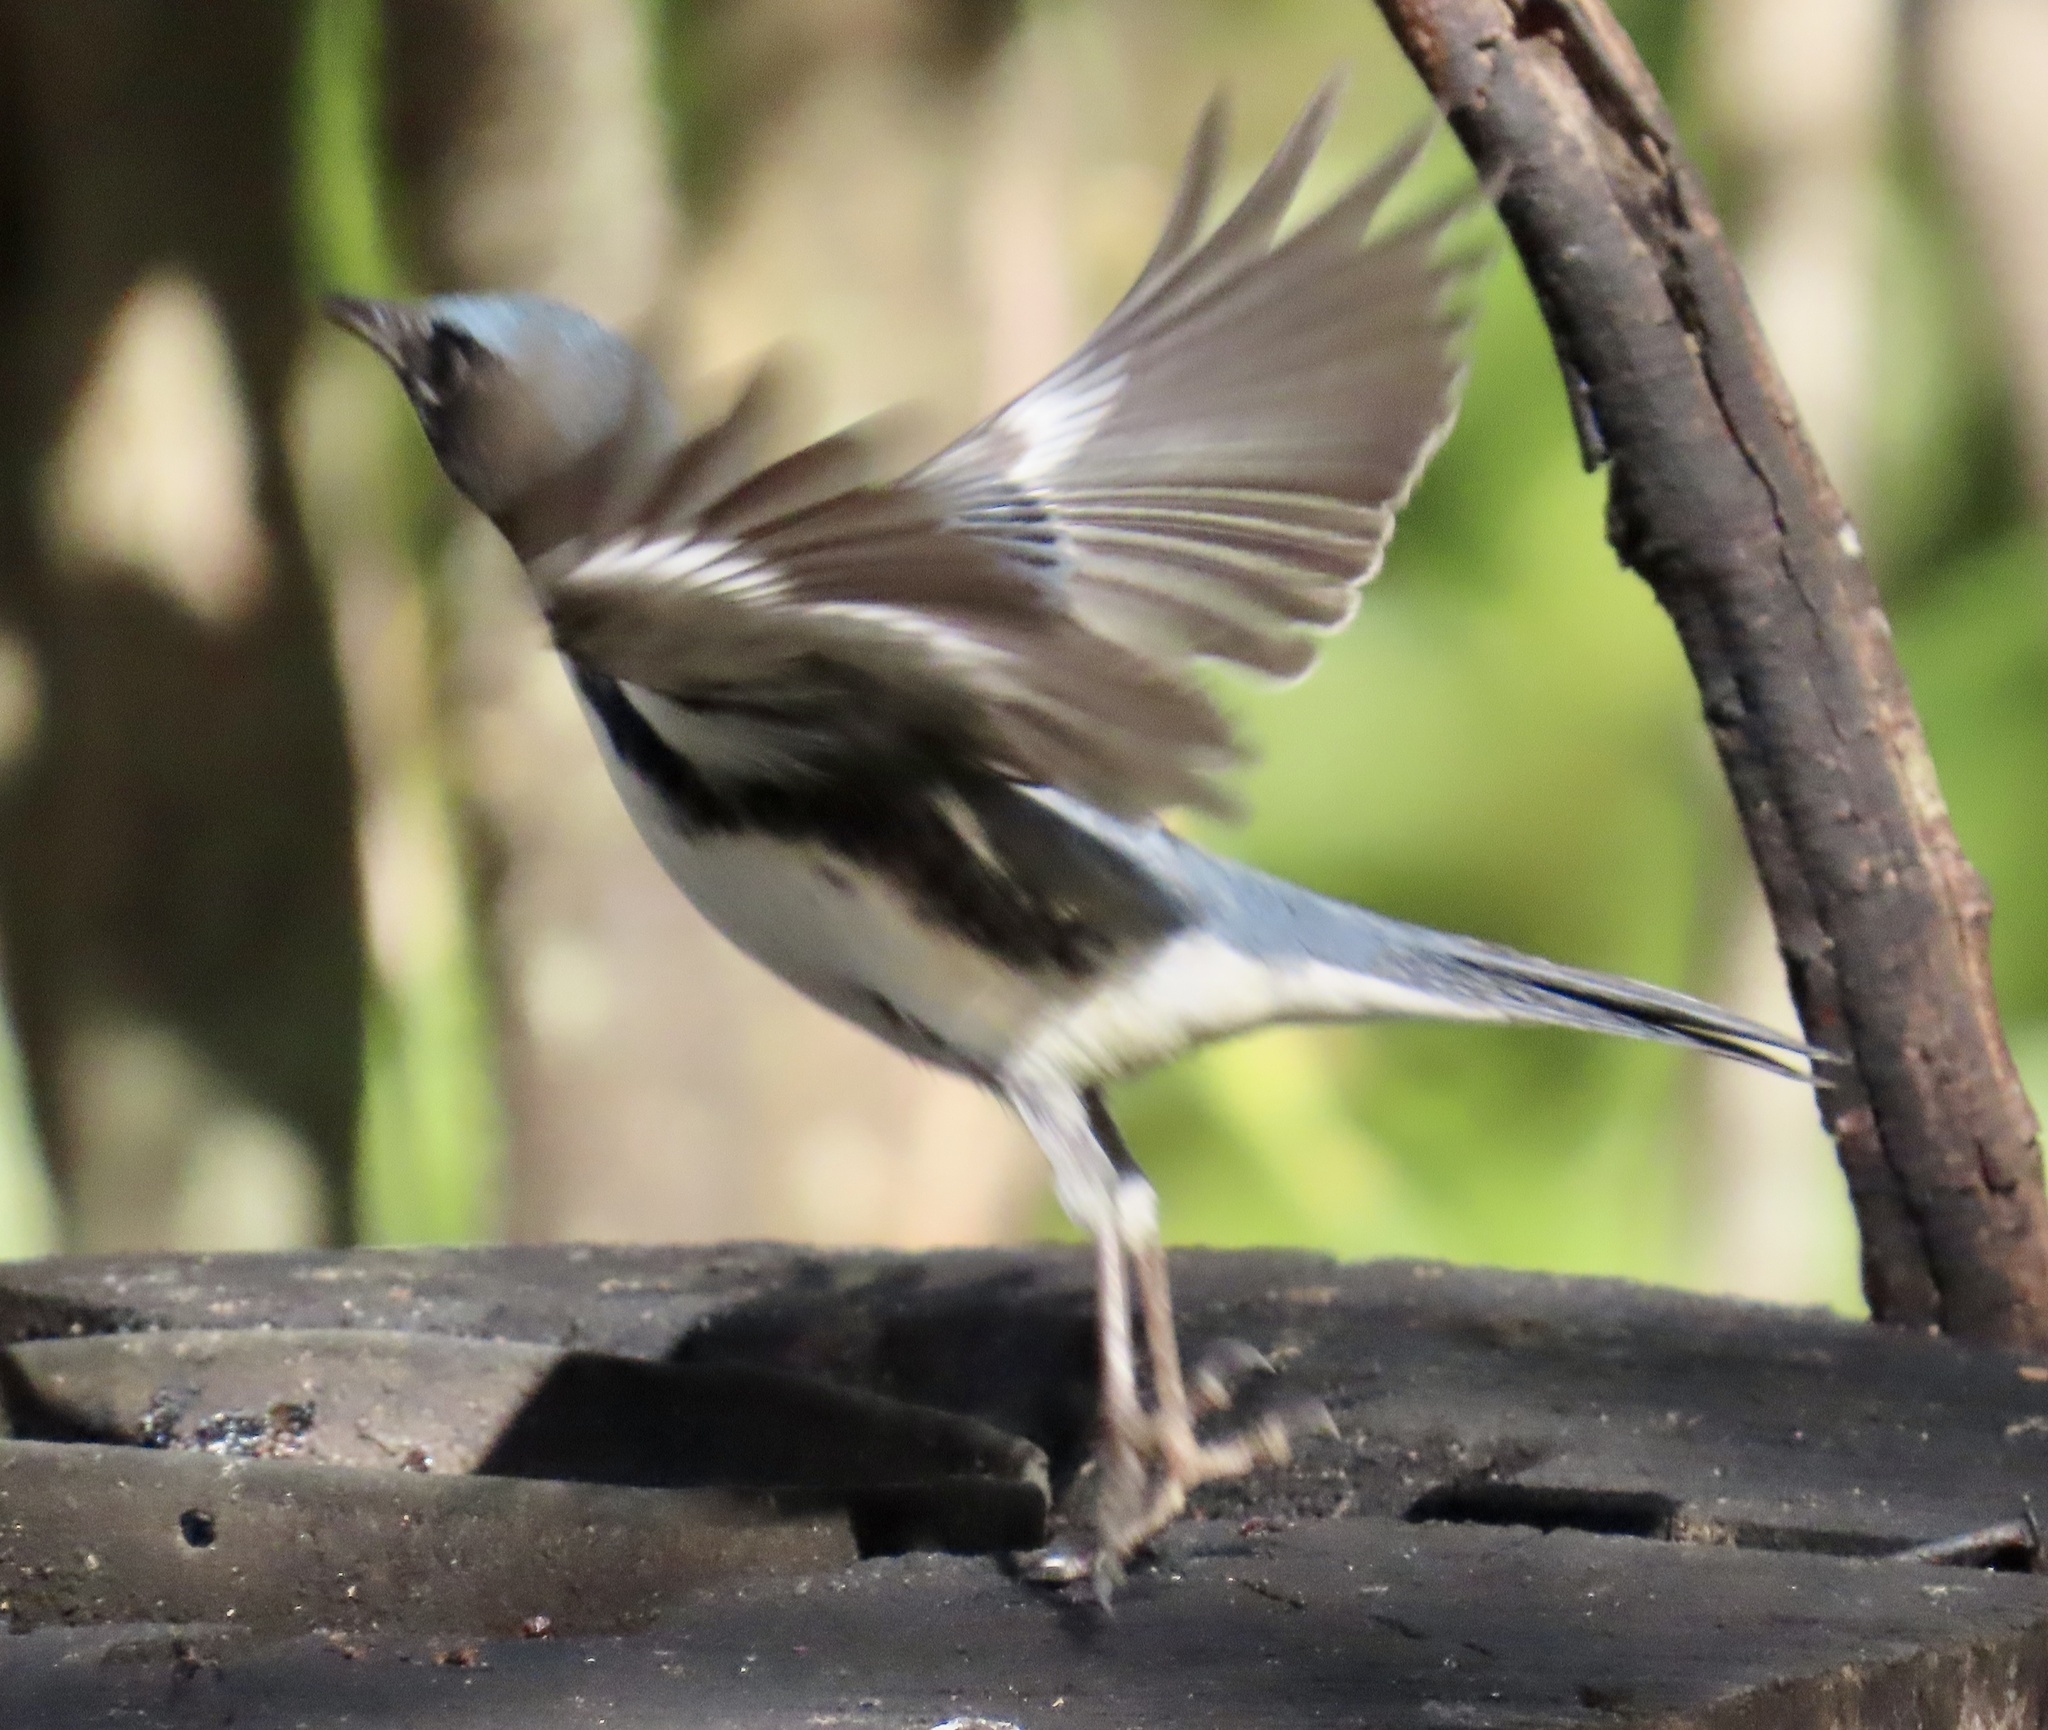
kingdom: Animalia
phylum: Chordata
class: Aves
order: Passeriformes
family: Parulidae
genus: Setophaga
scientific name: Setophaga caerulescens
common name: Black-throated blue warbler
